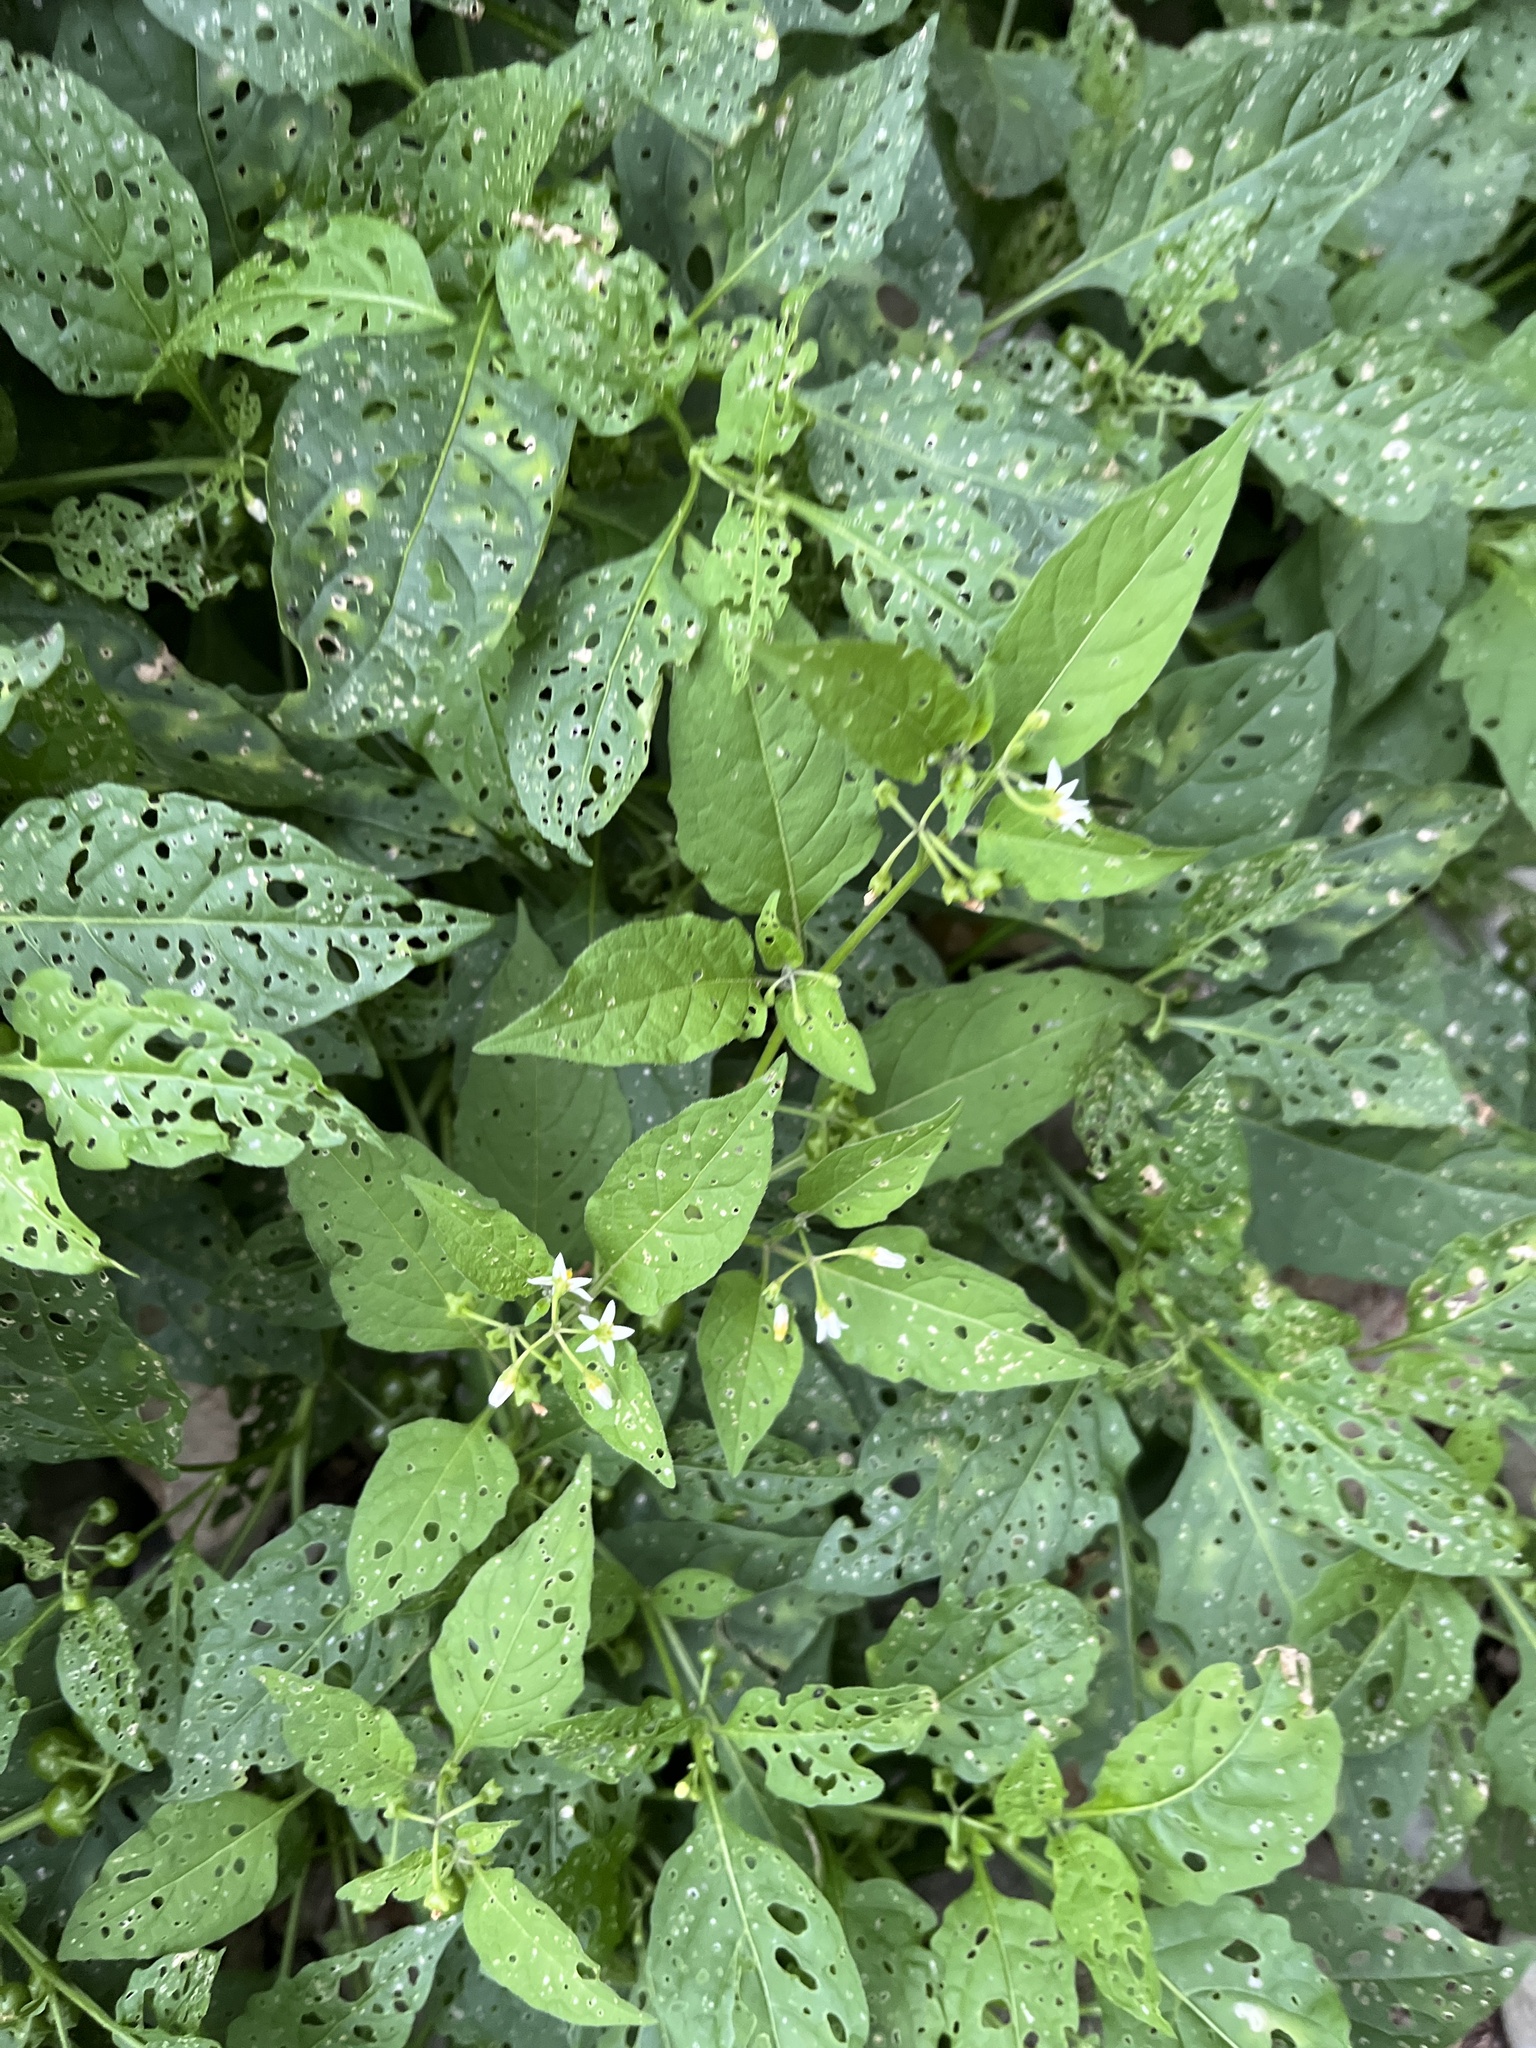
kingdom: Plantae
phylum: Tracheophyta
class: Magnoliopsida
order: Solanales
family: Solanaceae
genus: Solanum
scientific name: Solanum emulans
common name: Eastern black nightshade
